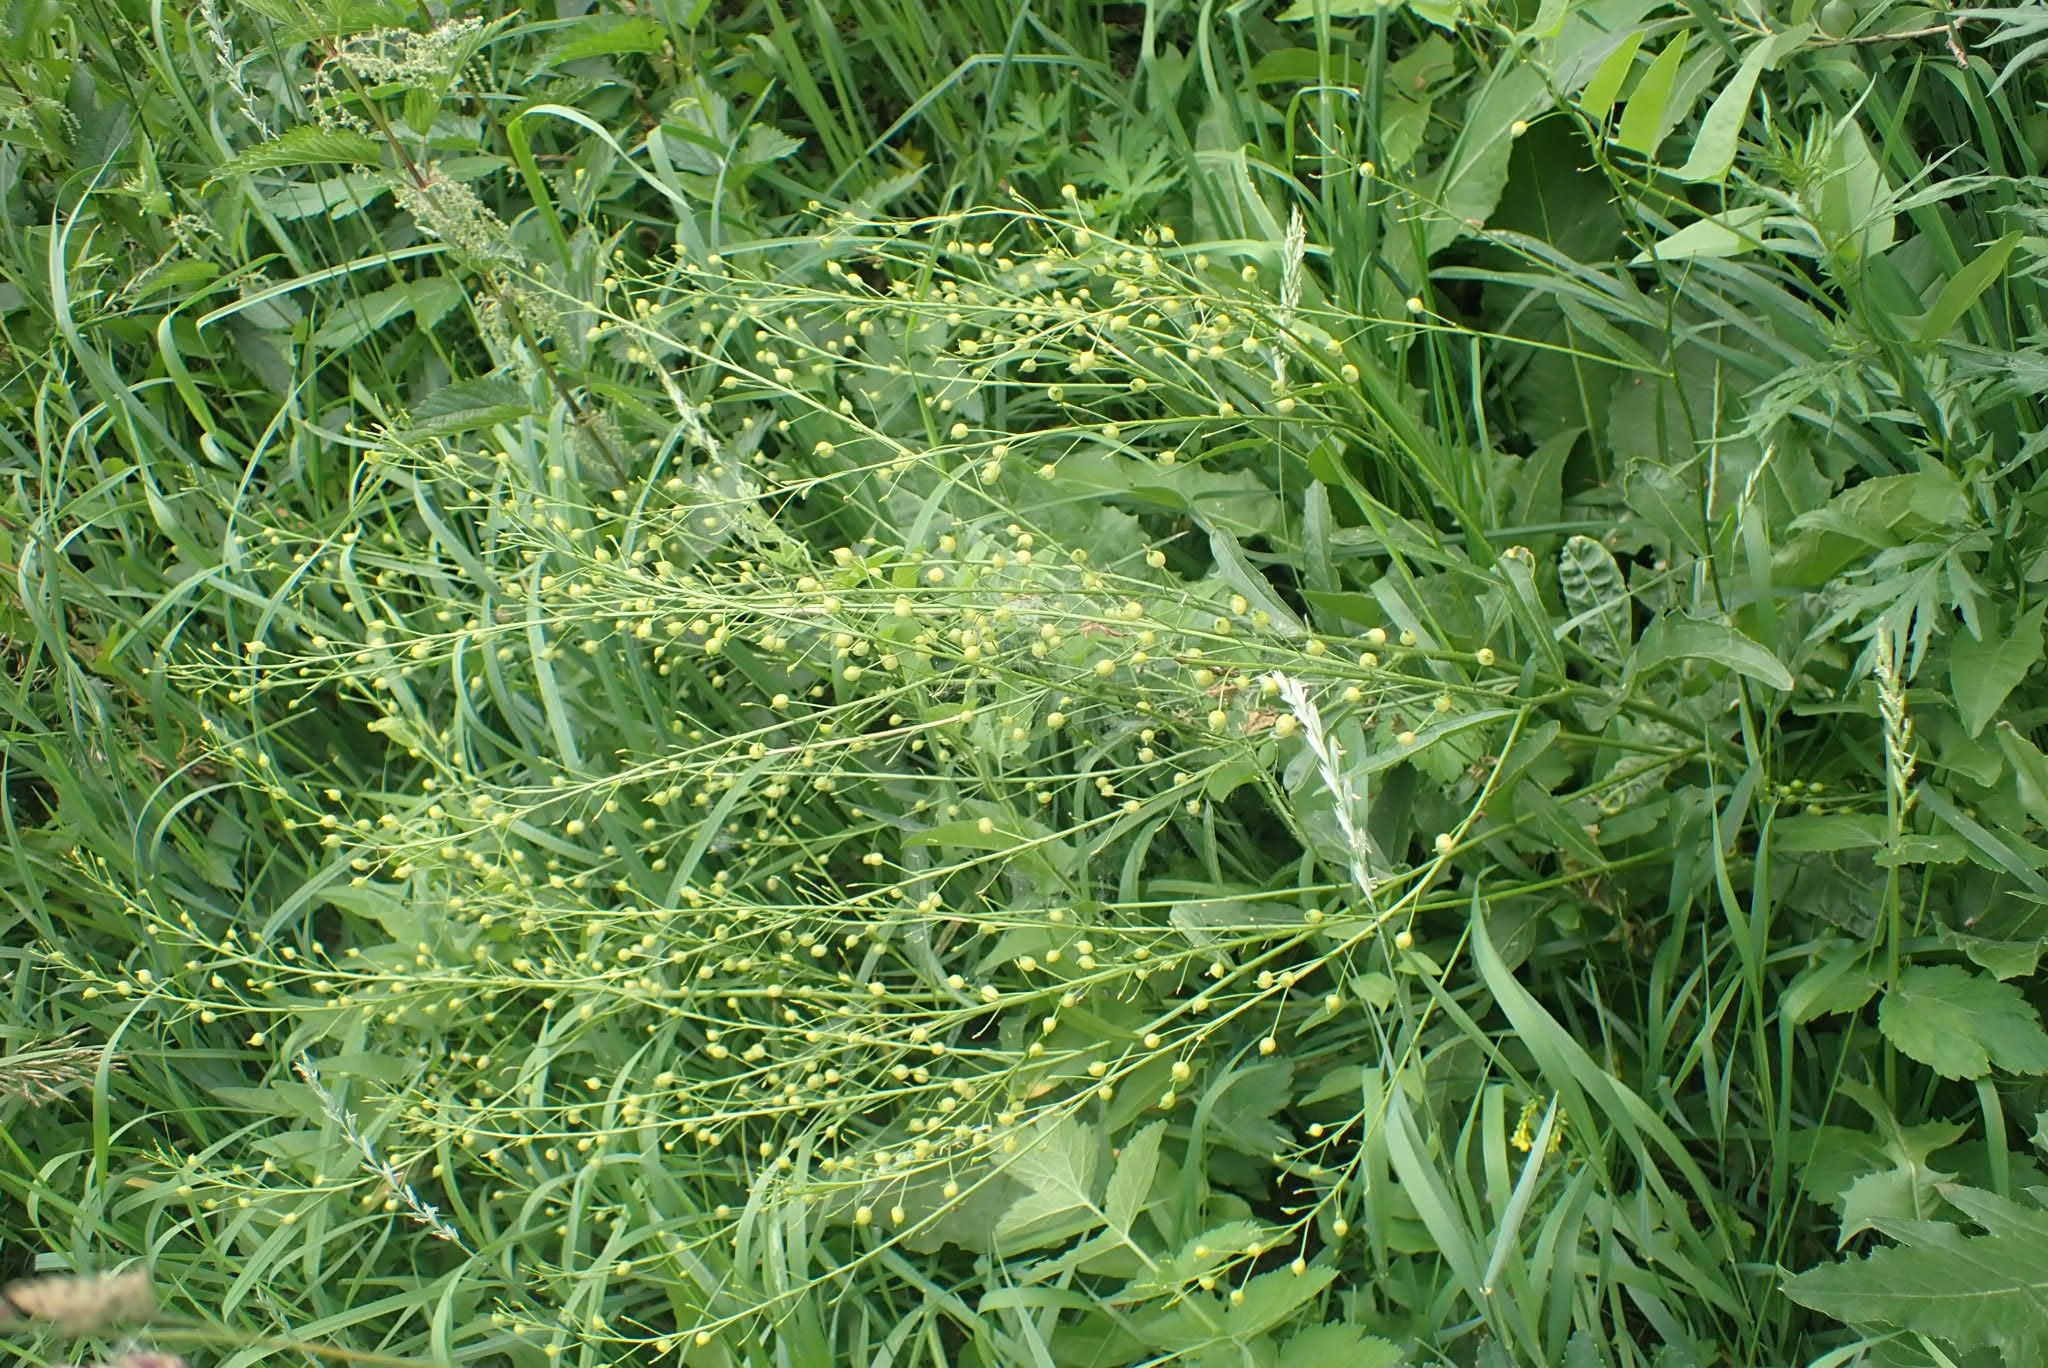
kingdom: Plantae
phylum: Tracheophyta
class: Magnoliopsida
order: Brassicales
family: Brassicaceae
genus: Bunias
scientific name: Bunias orientalis
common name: Warty-cabbage
